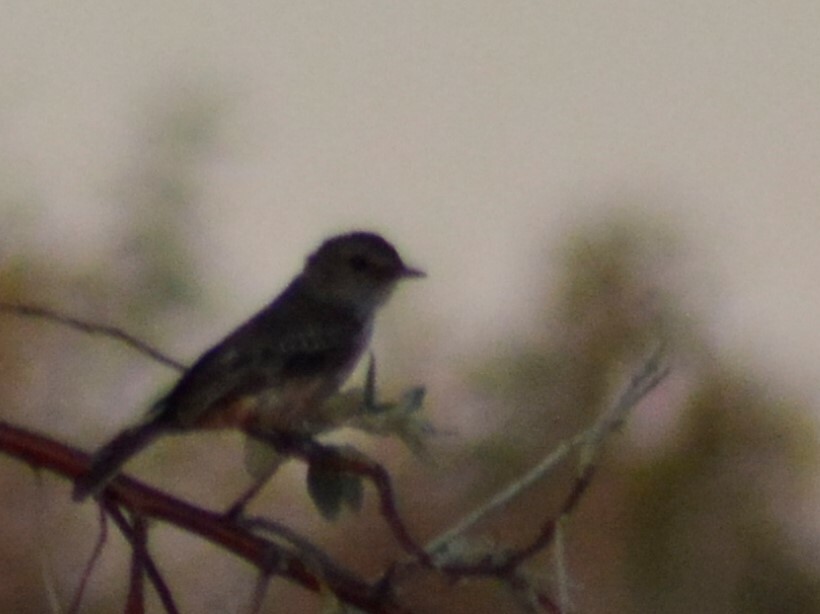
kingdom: Animalia
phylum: Chordata
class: Aves
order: Passeriformes
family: Tyrannidae
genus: Pyrocephalus
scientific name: Pyrocephalus rubinus
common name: Vermilion flycatcher
